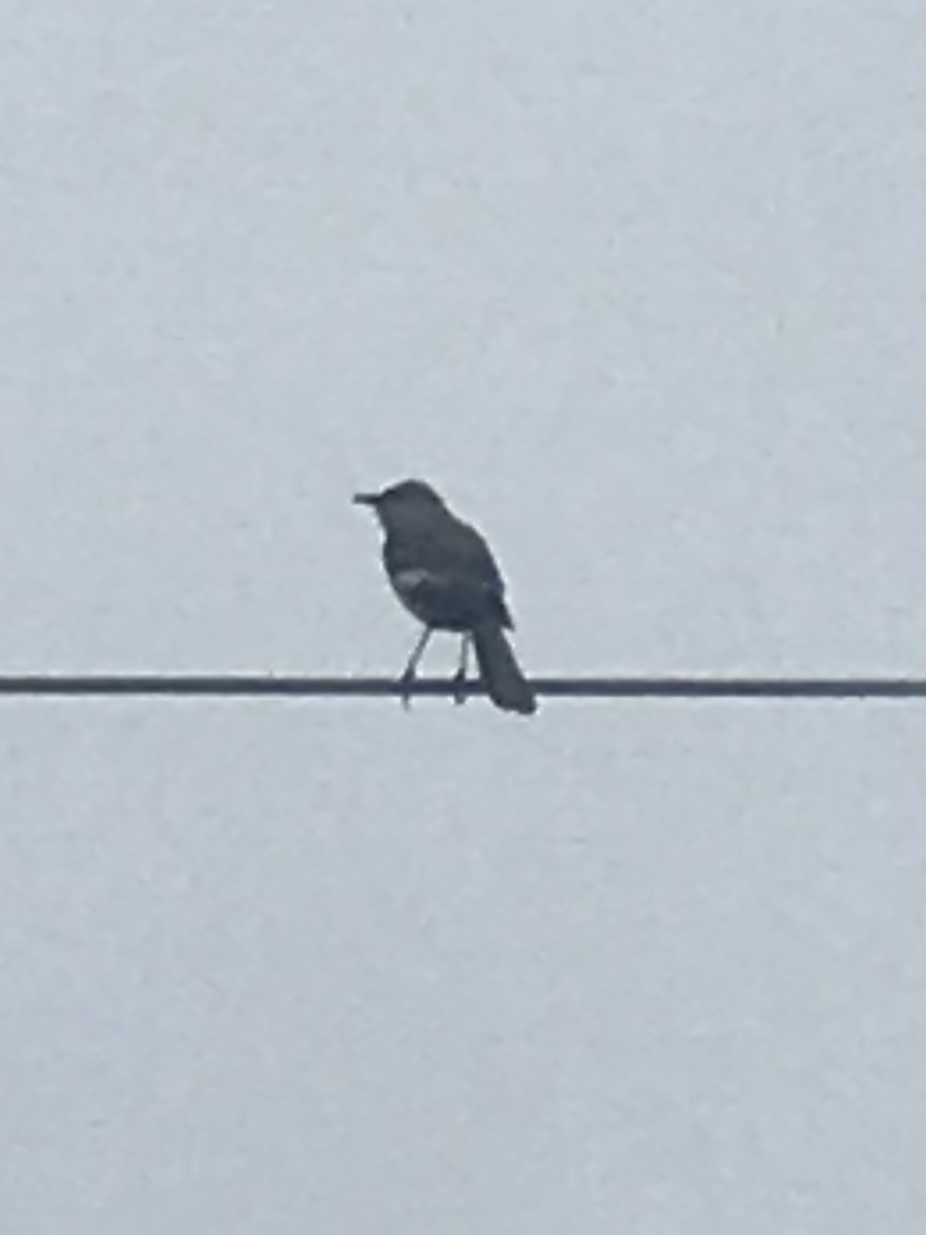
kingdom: Animalia
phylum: Chordata
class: Aves
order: Passeriformes
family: Mimidae
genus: Mimus
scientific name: Mimus polyglottos
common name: Northern mockingbird
